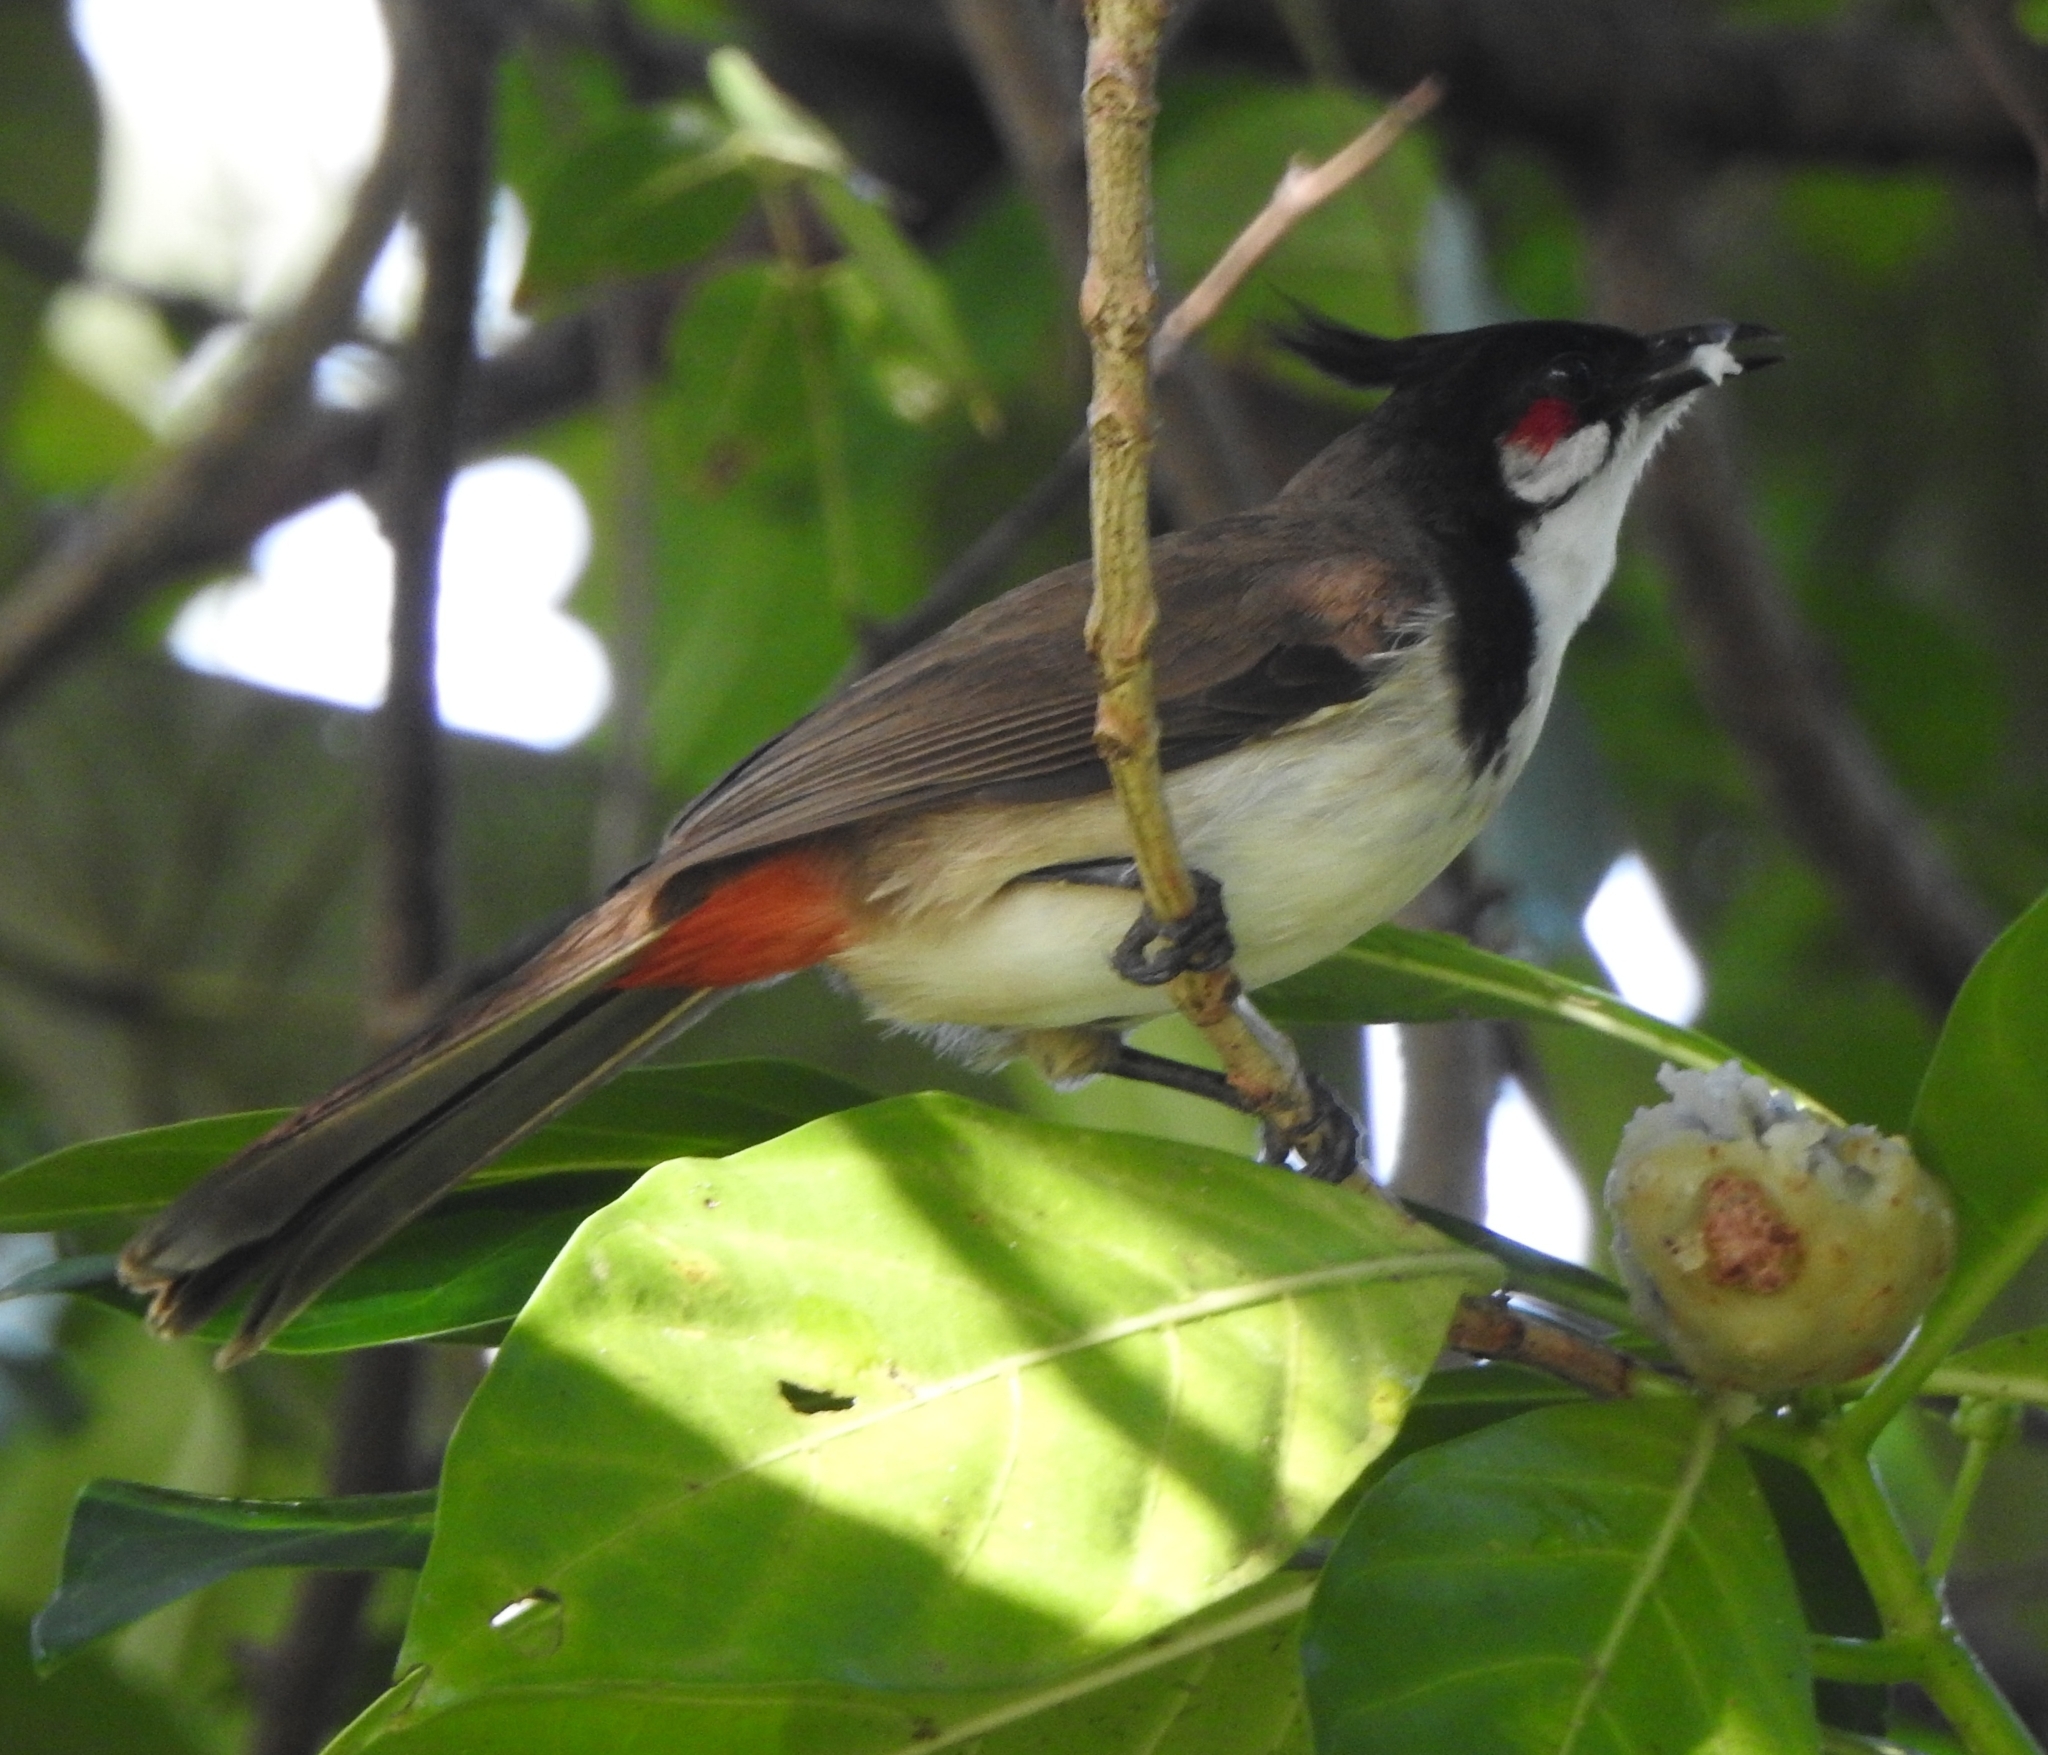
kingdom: Animalia
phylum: Chordata
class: Aves
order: Passeriformes
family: Pycnonotidae
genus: Pycnonotus
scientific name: Pycnonotus jocosus
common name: Red-whiskered bulbul
